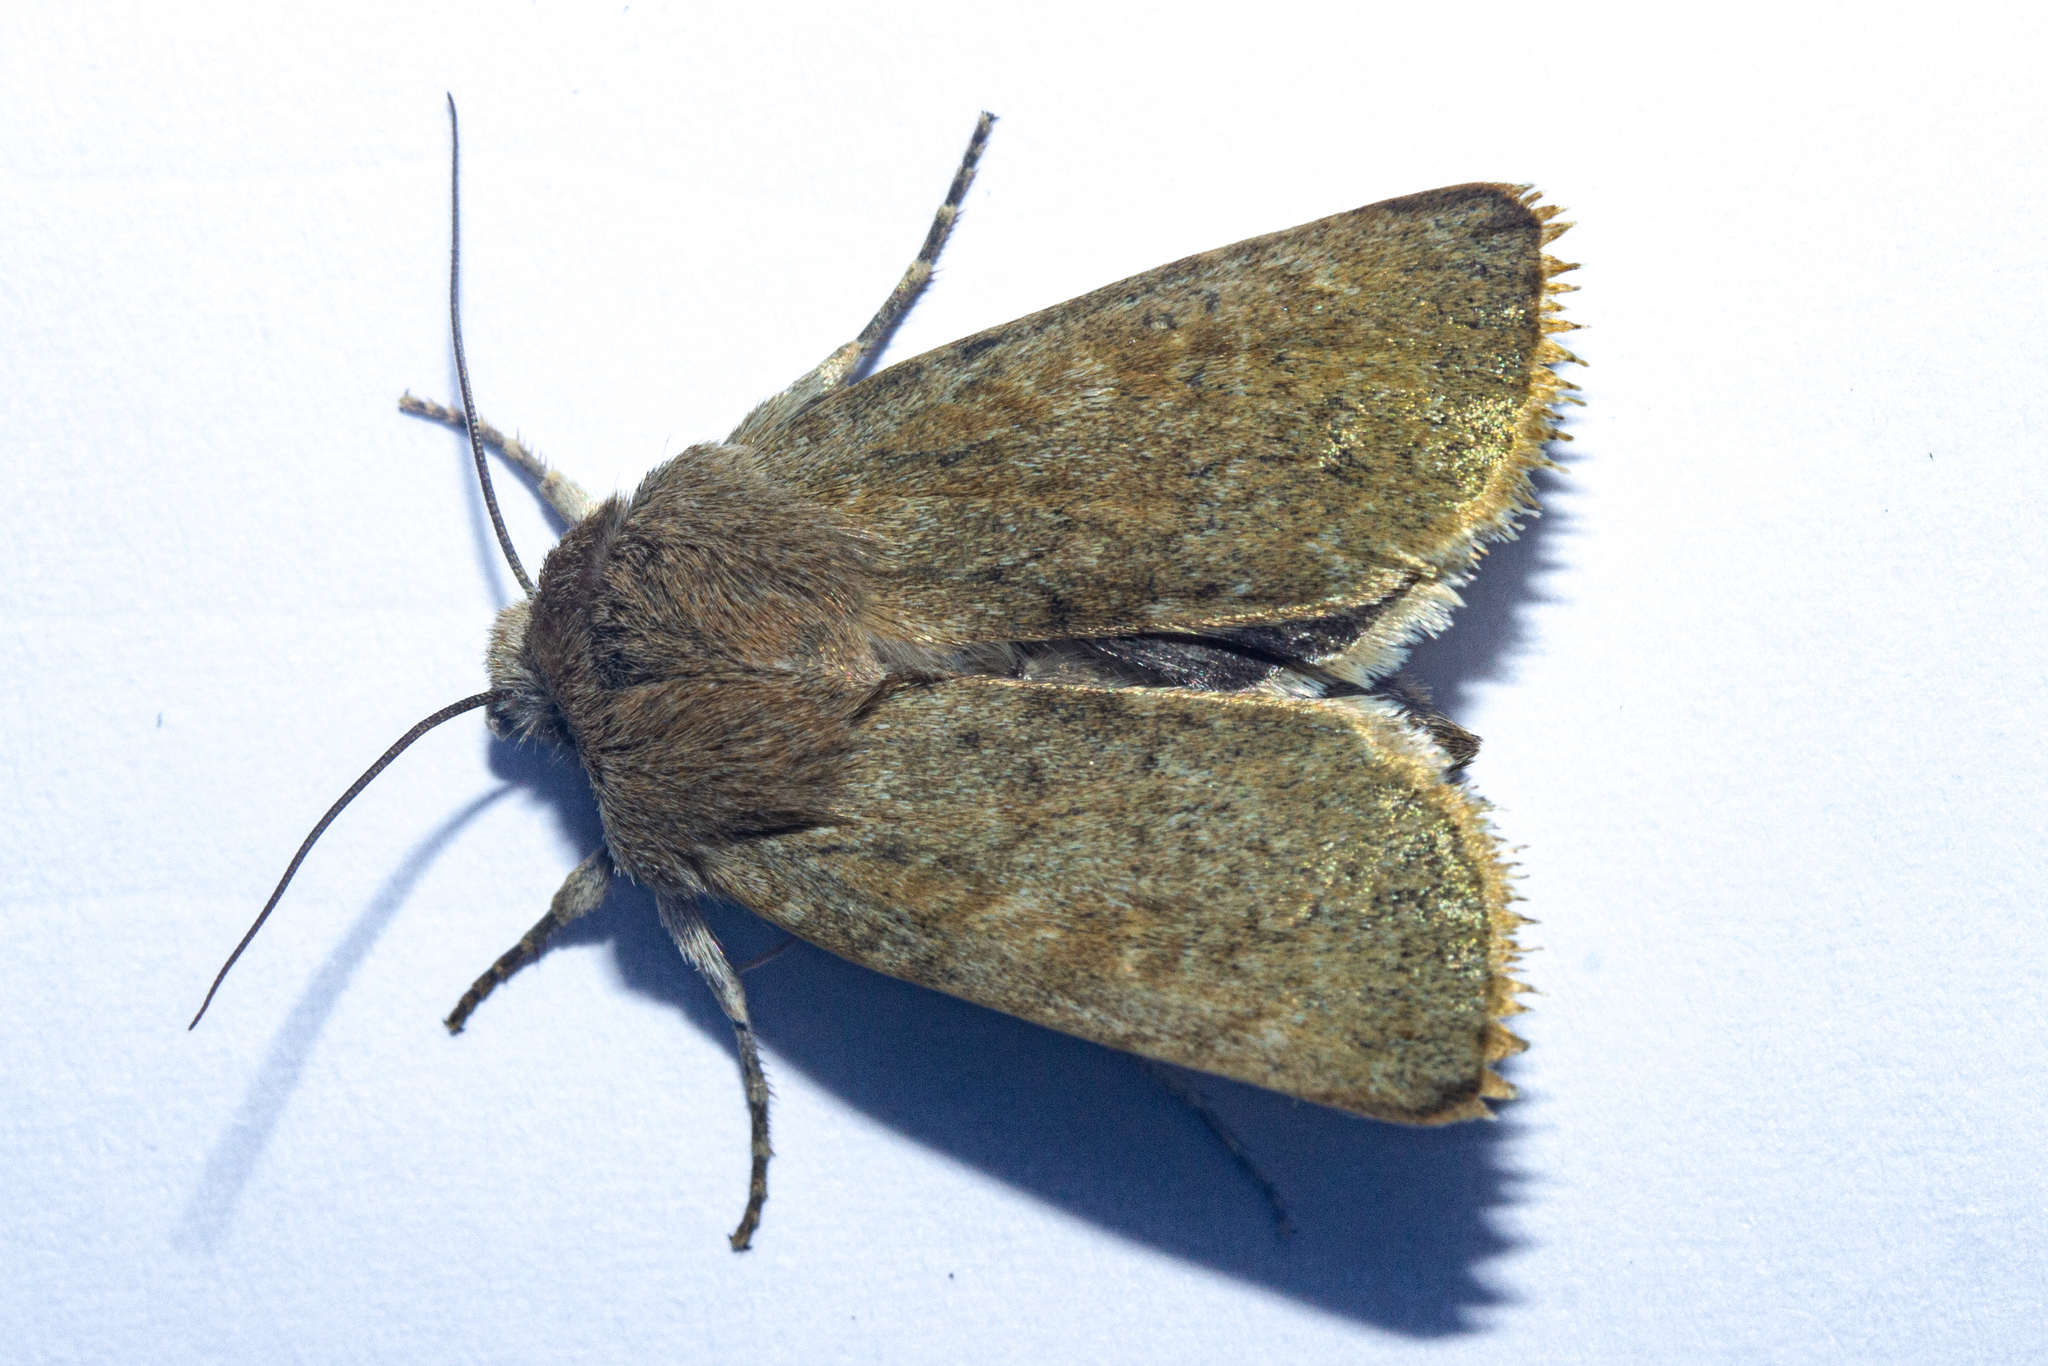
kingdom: Animalia
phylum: Arthropoda
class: Insecta
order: Lepidoptera
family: Noctuidae
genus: Physetica
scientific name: Physetica caerulea
